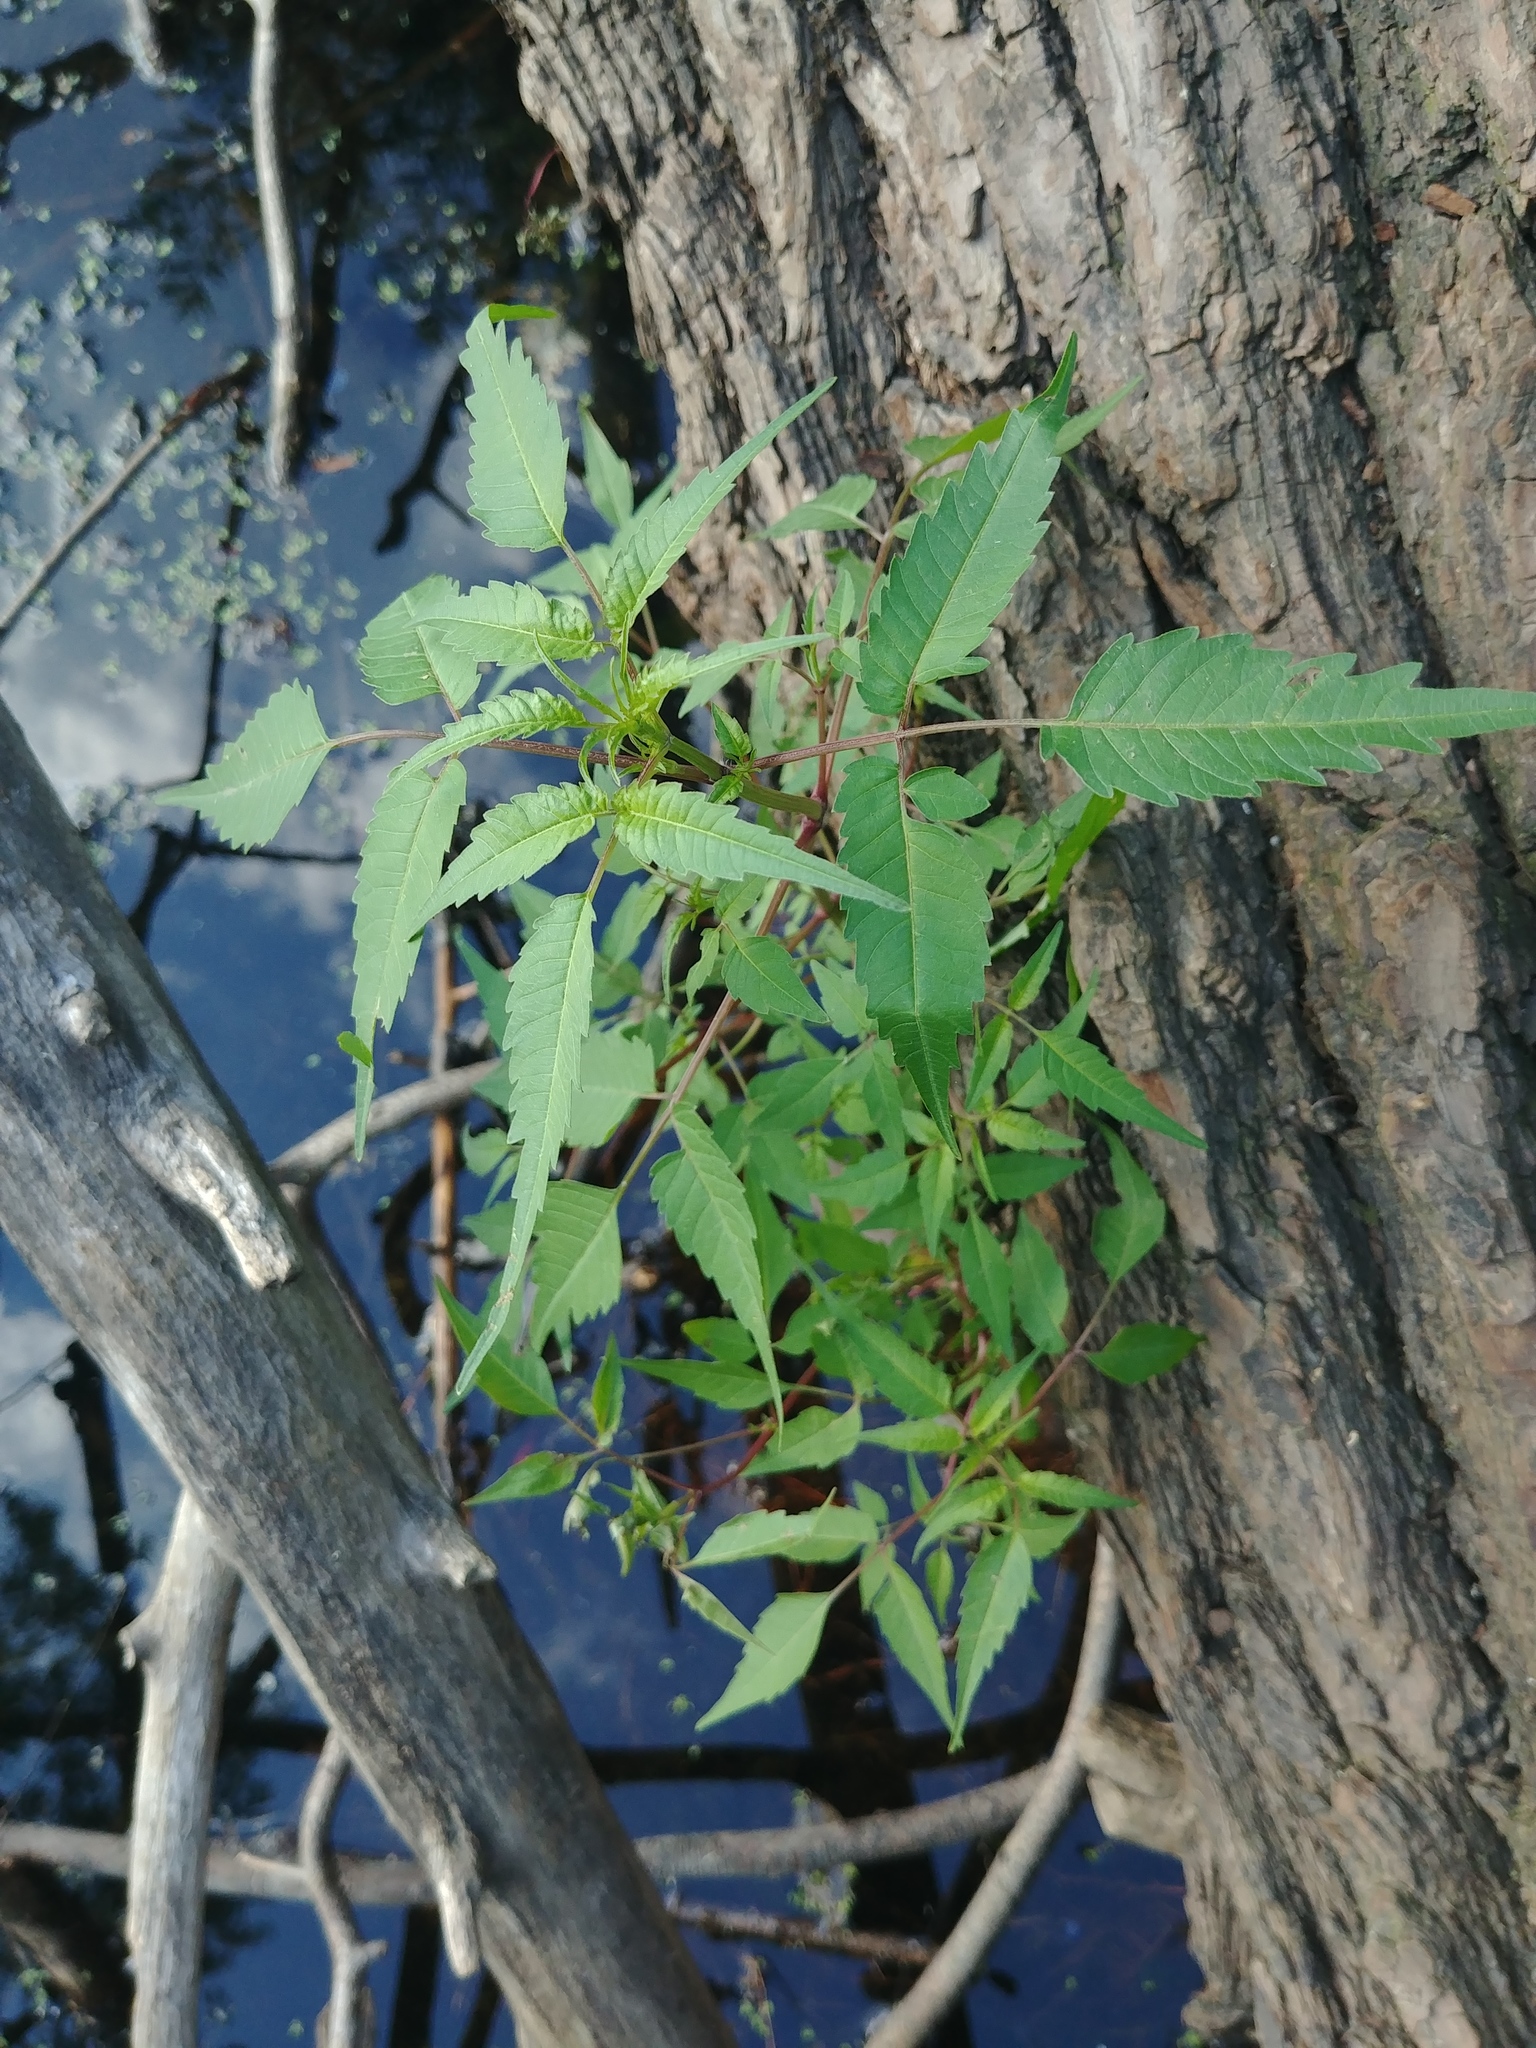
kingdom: Plantae
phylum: Tracheophyta
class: Magnoliopsida
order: Asterales
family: Asteraceae
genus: Bidens
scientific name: Bidens frondosa
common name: Beggarticks
